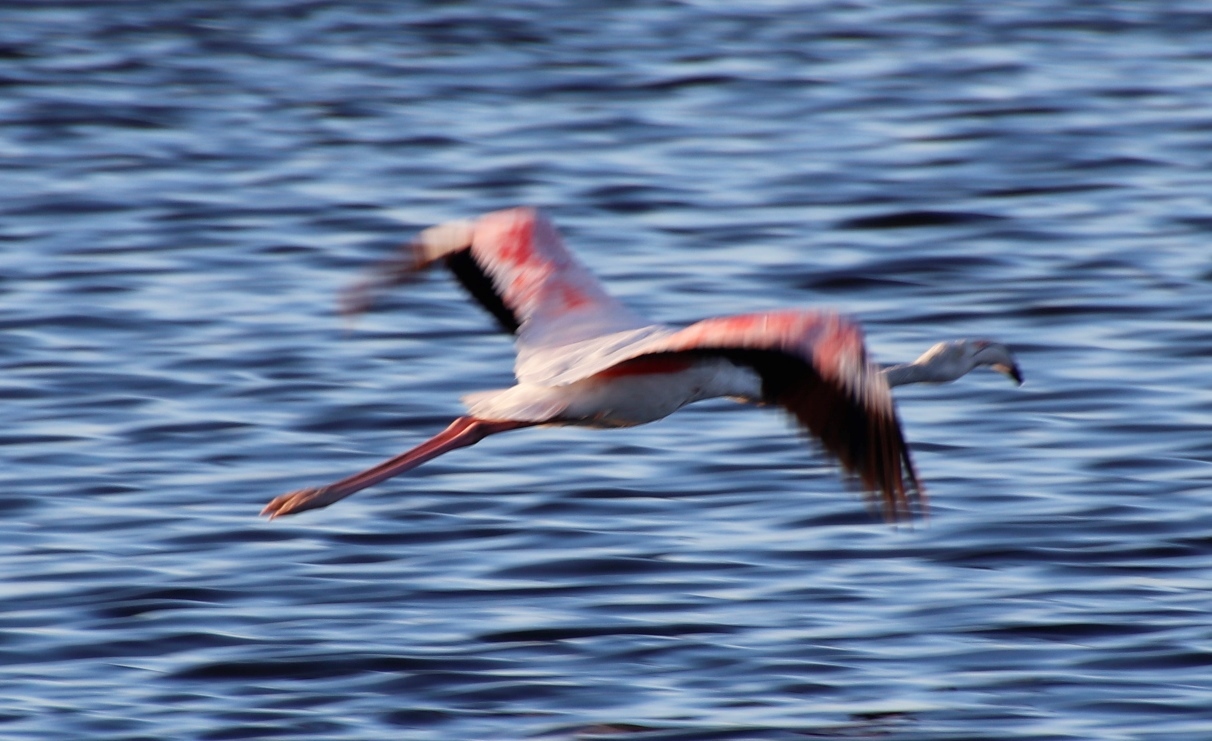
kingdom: Animalia
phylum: Chordata
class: Aves
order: Phoenicopteriformes
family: Phoenicopteridae
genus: Phoenicopterus
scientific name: Phoenicopterus roseus
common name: Greater flamingo
